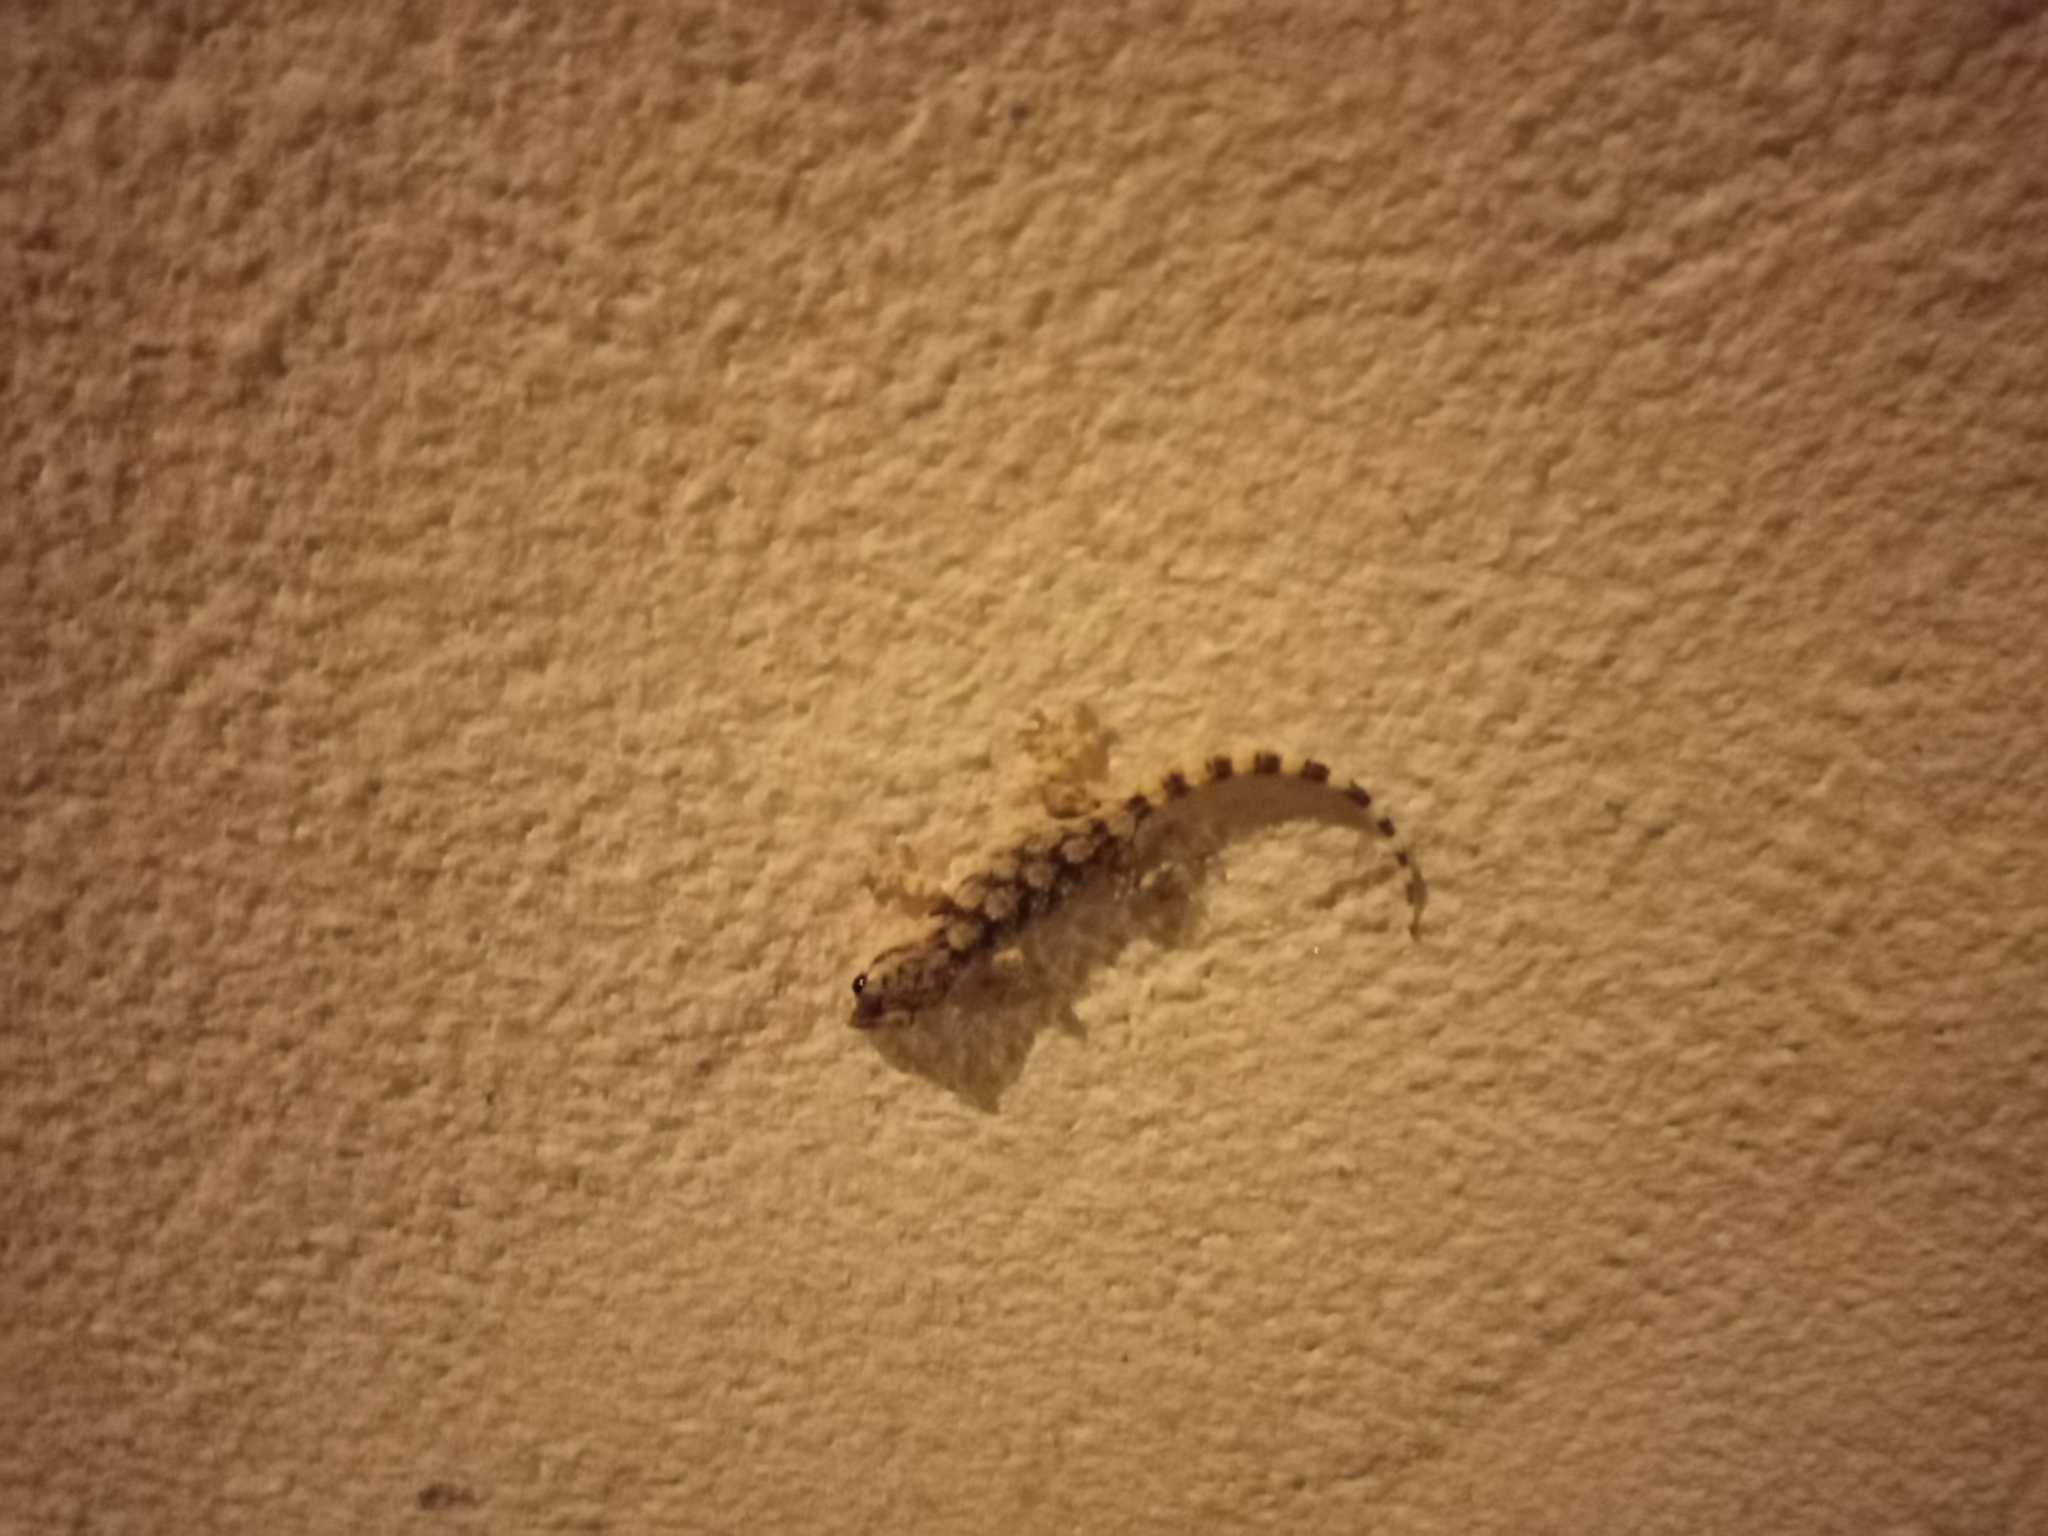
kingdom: Animalia
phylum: Chordata
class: Squamata
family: Phyllodactylidae
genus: Tarentola
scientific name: Tarentola mauritanica
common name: Moorish gecko
